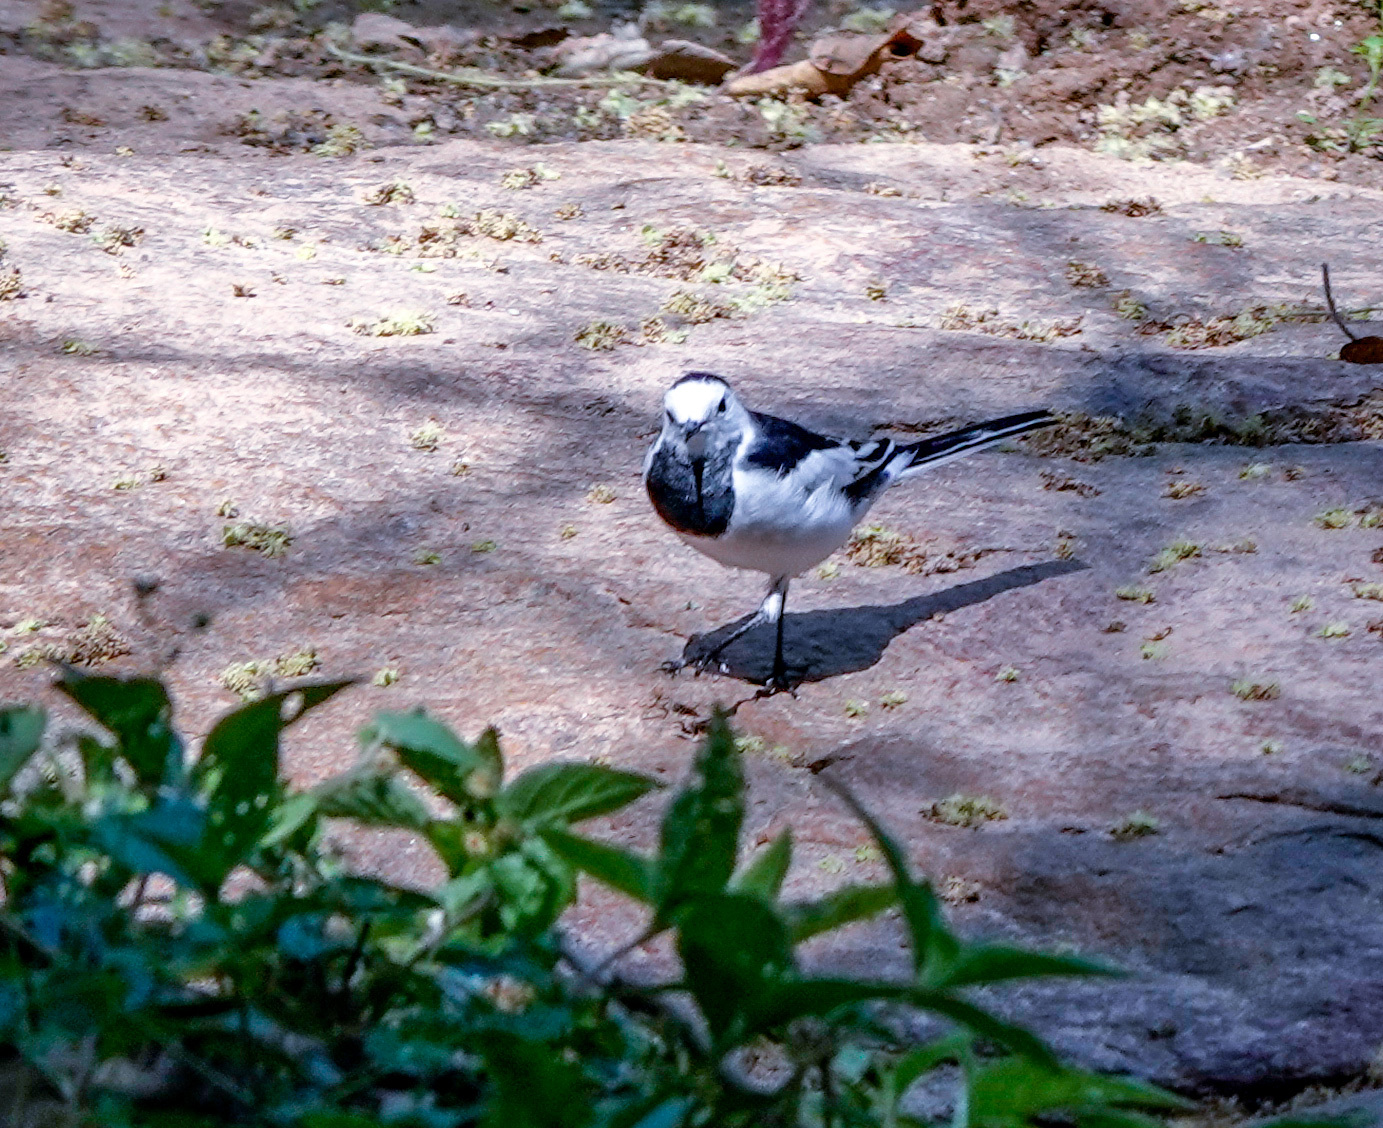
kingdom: Animalia
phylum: Chordata
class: Aves
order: Passeriformes
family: Motacillidae
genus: Motacilla
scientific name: Motacilla alba
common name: White wagtail
